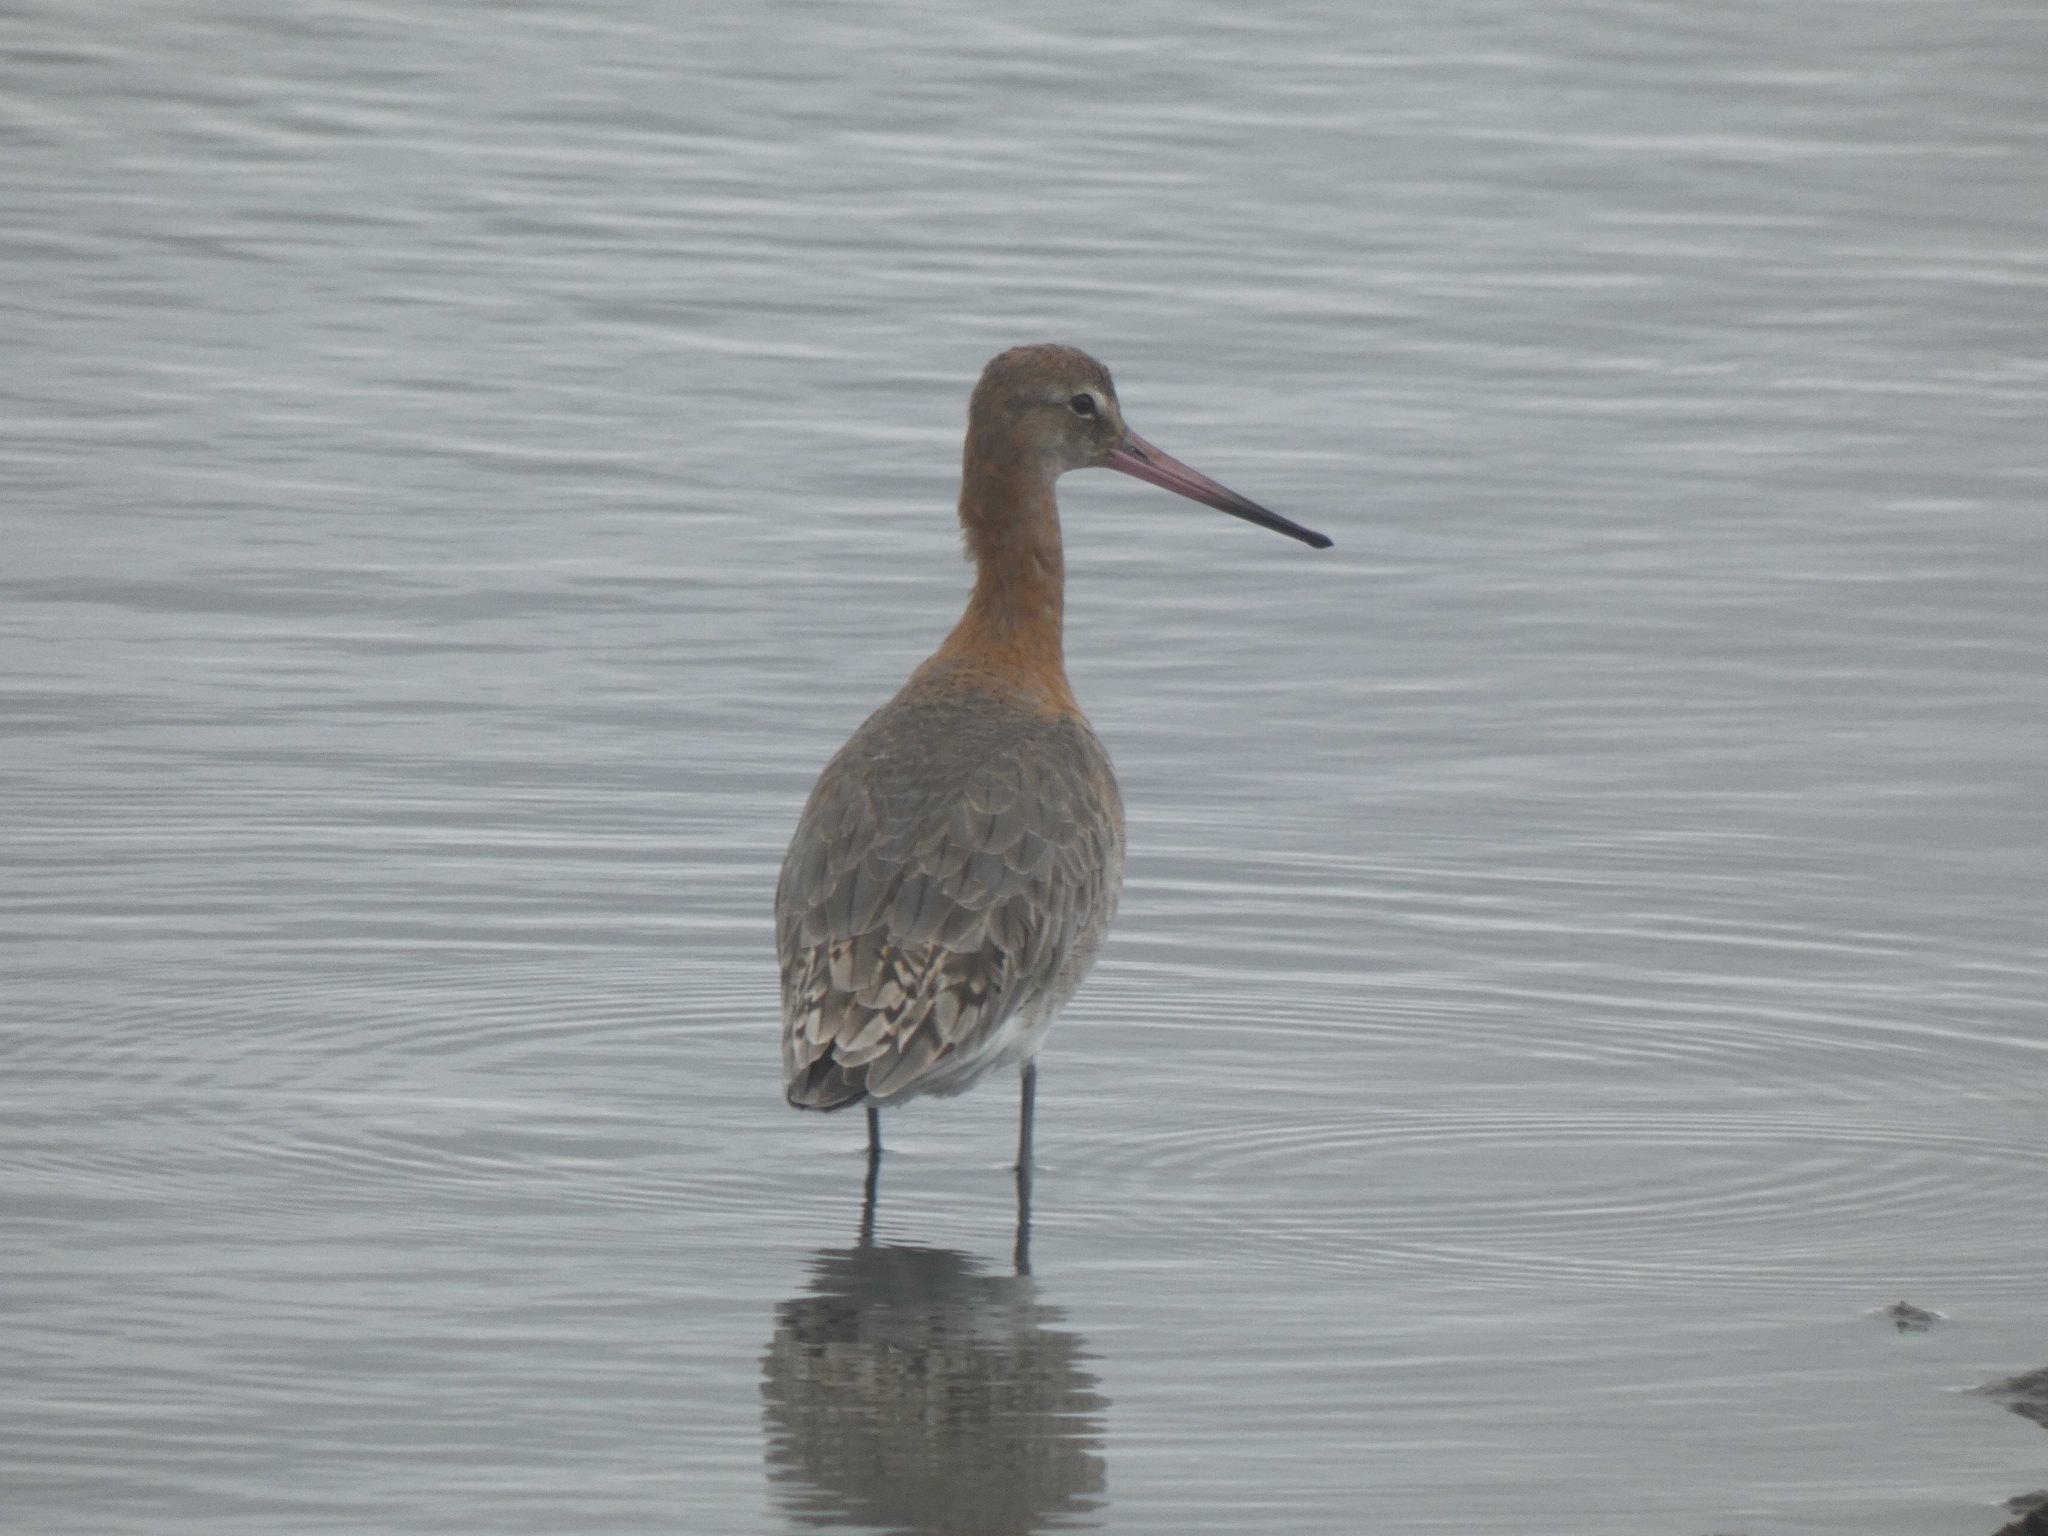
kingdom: Animalia
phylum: Chordata
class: Aves
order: Charadriiformes
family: Scolopacidae
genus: Limosa
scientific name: Limosa limosa
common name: Black-tailed godwit
